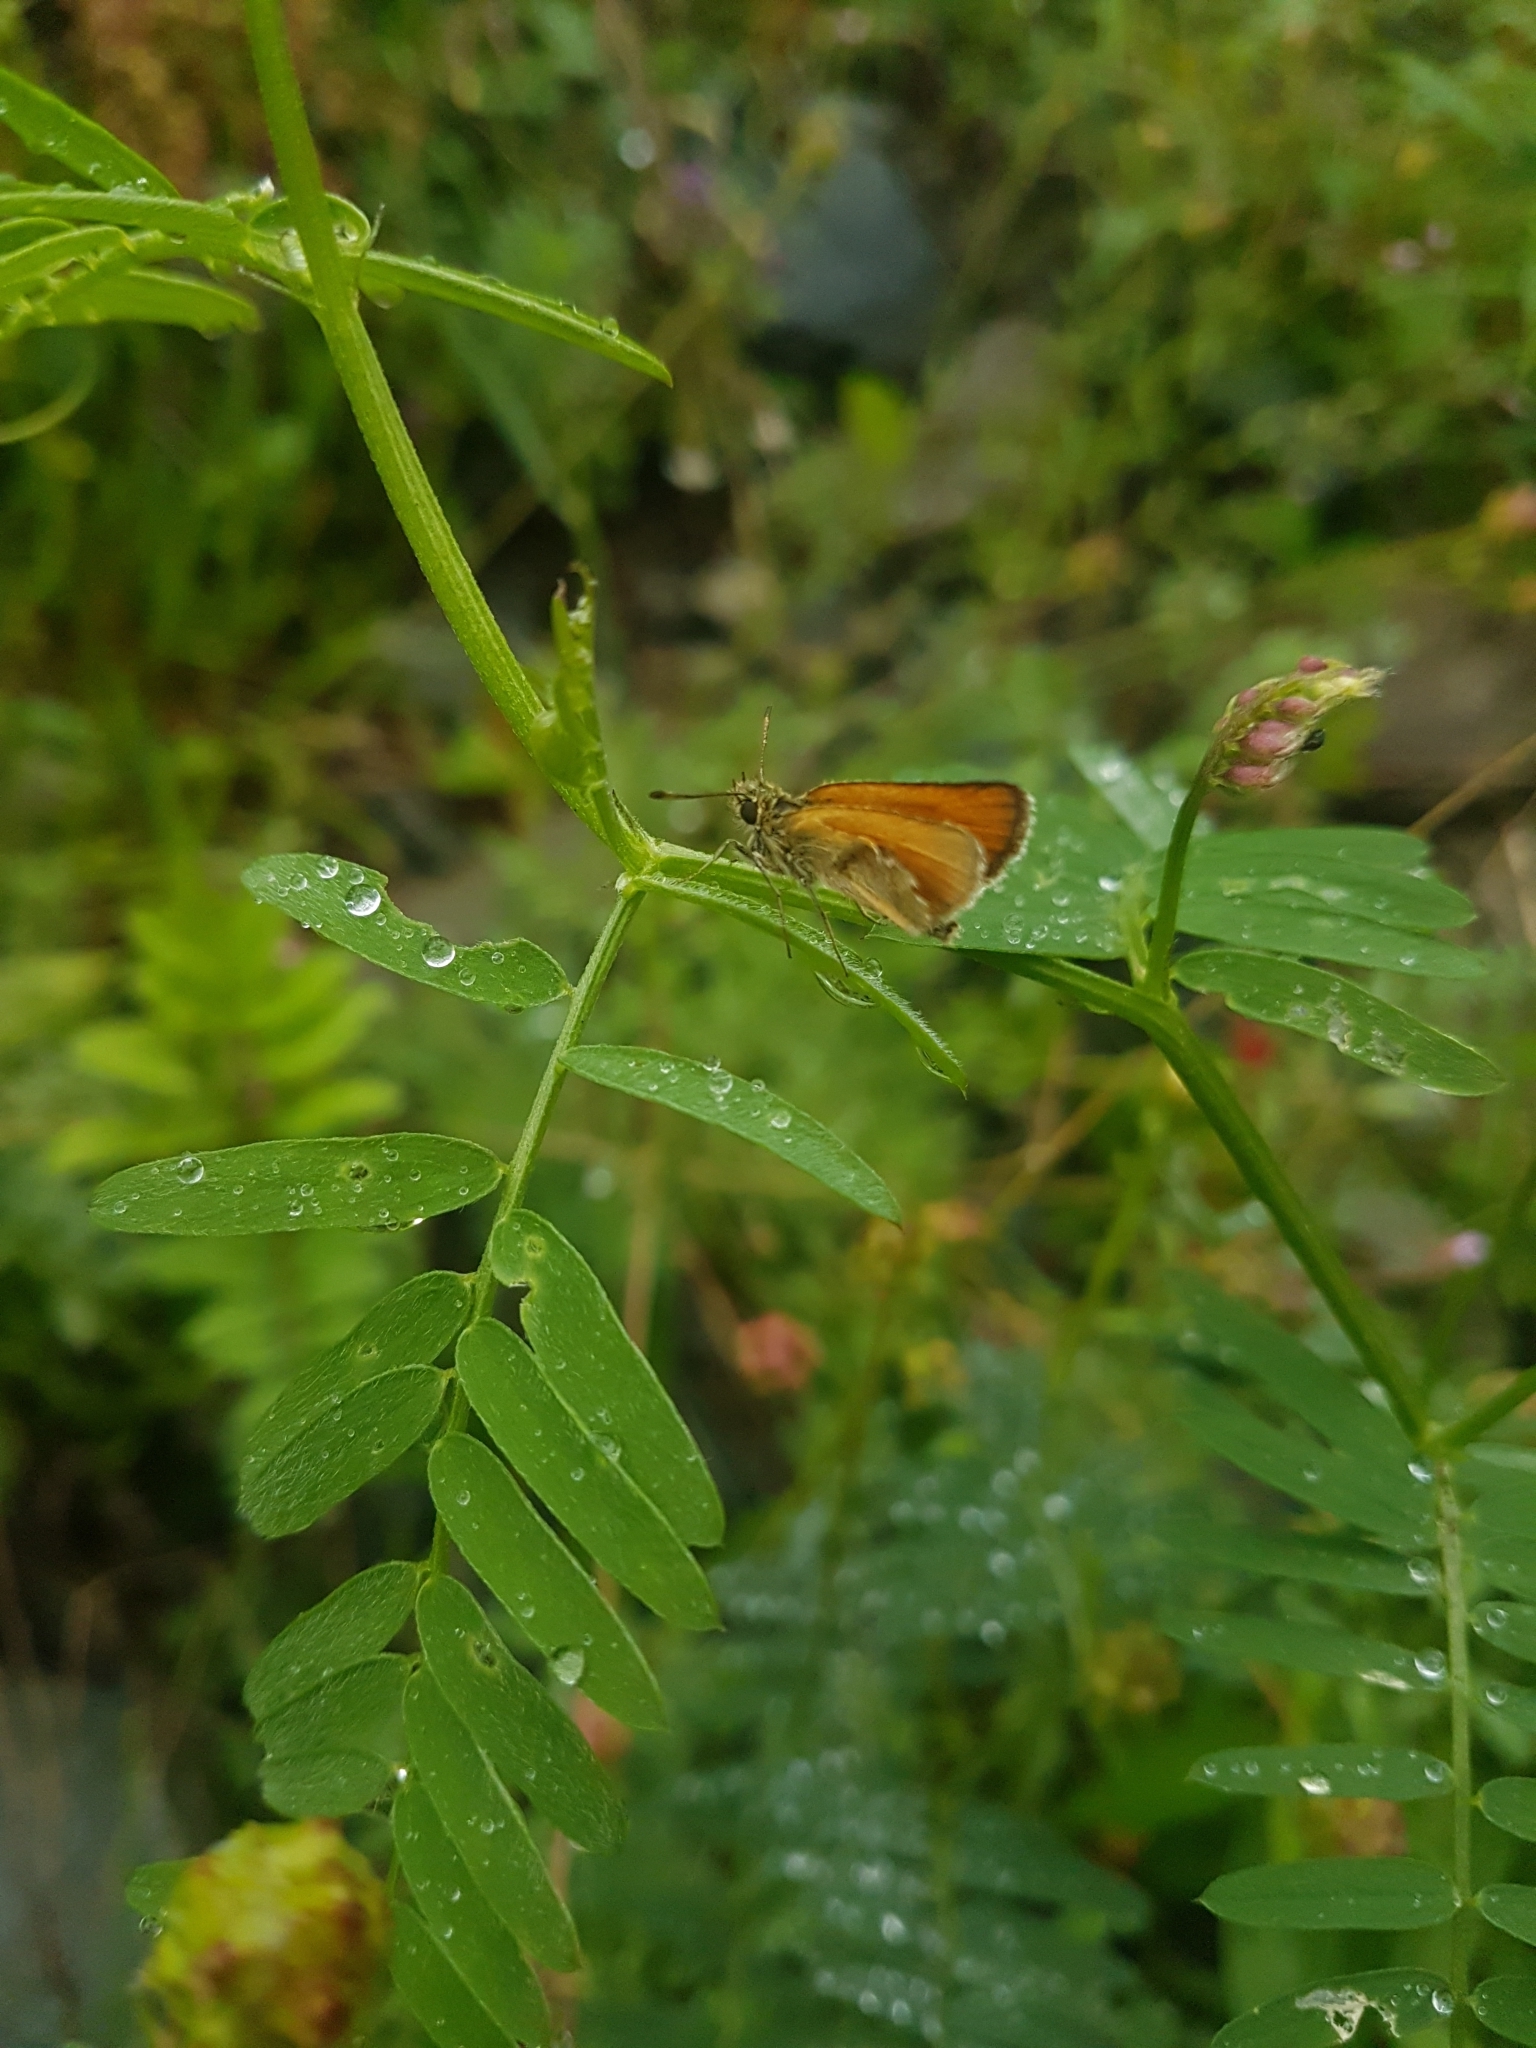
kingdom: Animalia
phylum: Arthropoda
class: Insecta
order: Lepidoptera
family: Hesperiidae
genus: Thymelicus
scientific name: Thymelicus lineola
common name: Essex skipper
